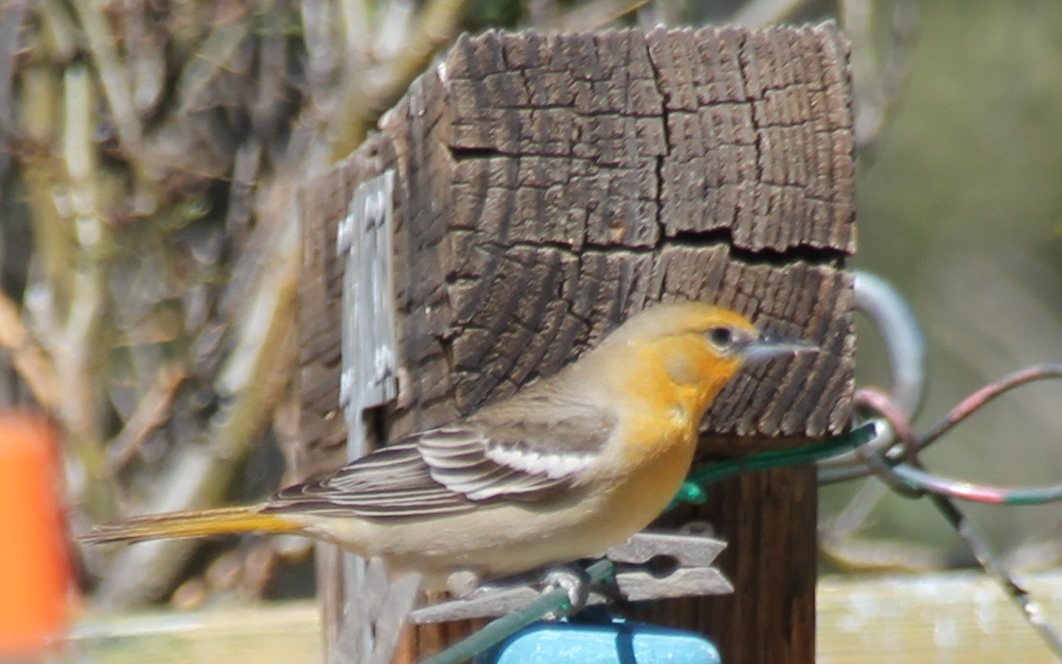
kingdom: Animalia
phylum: Chordata
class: Aves
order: Passeriformes
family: Icteridae
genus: Icterus
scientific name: Icterus bullockii
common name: Bullock's oriole
